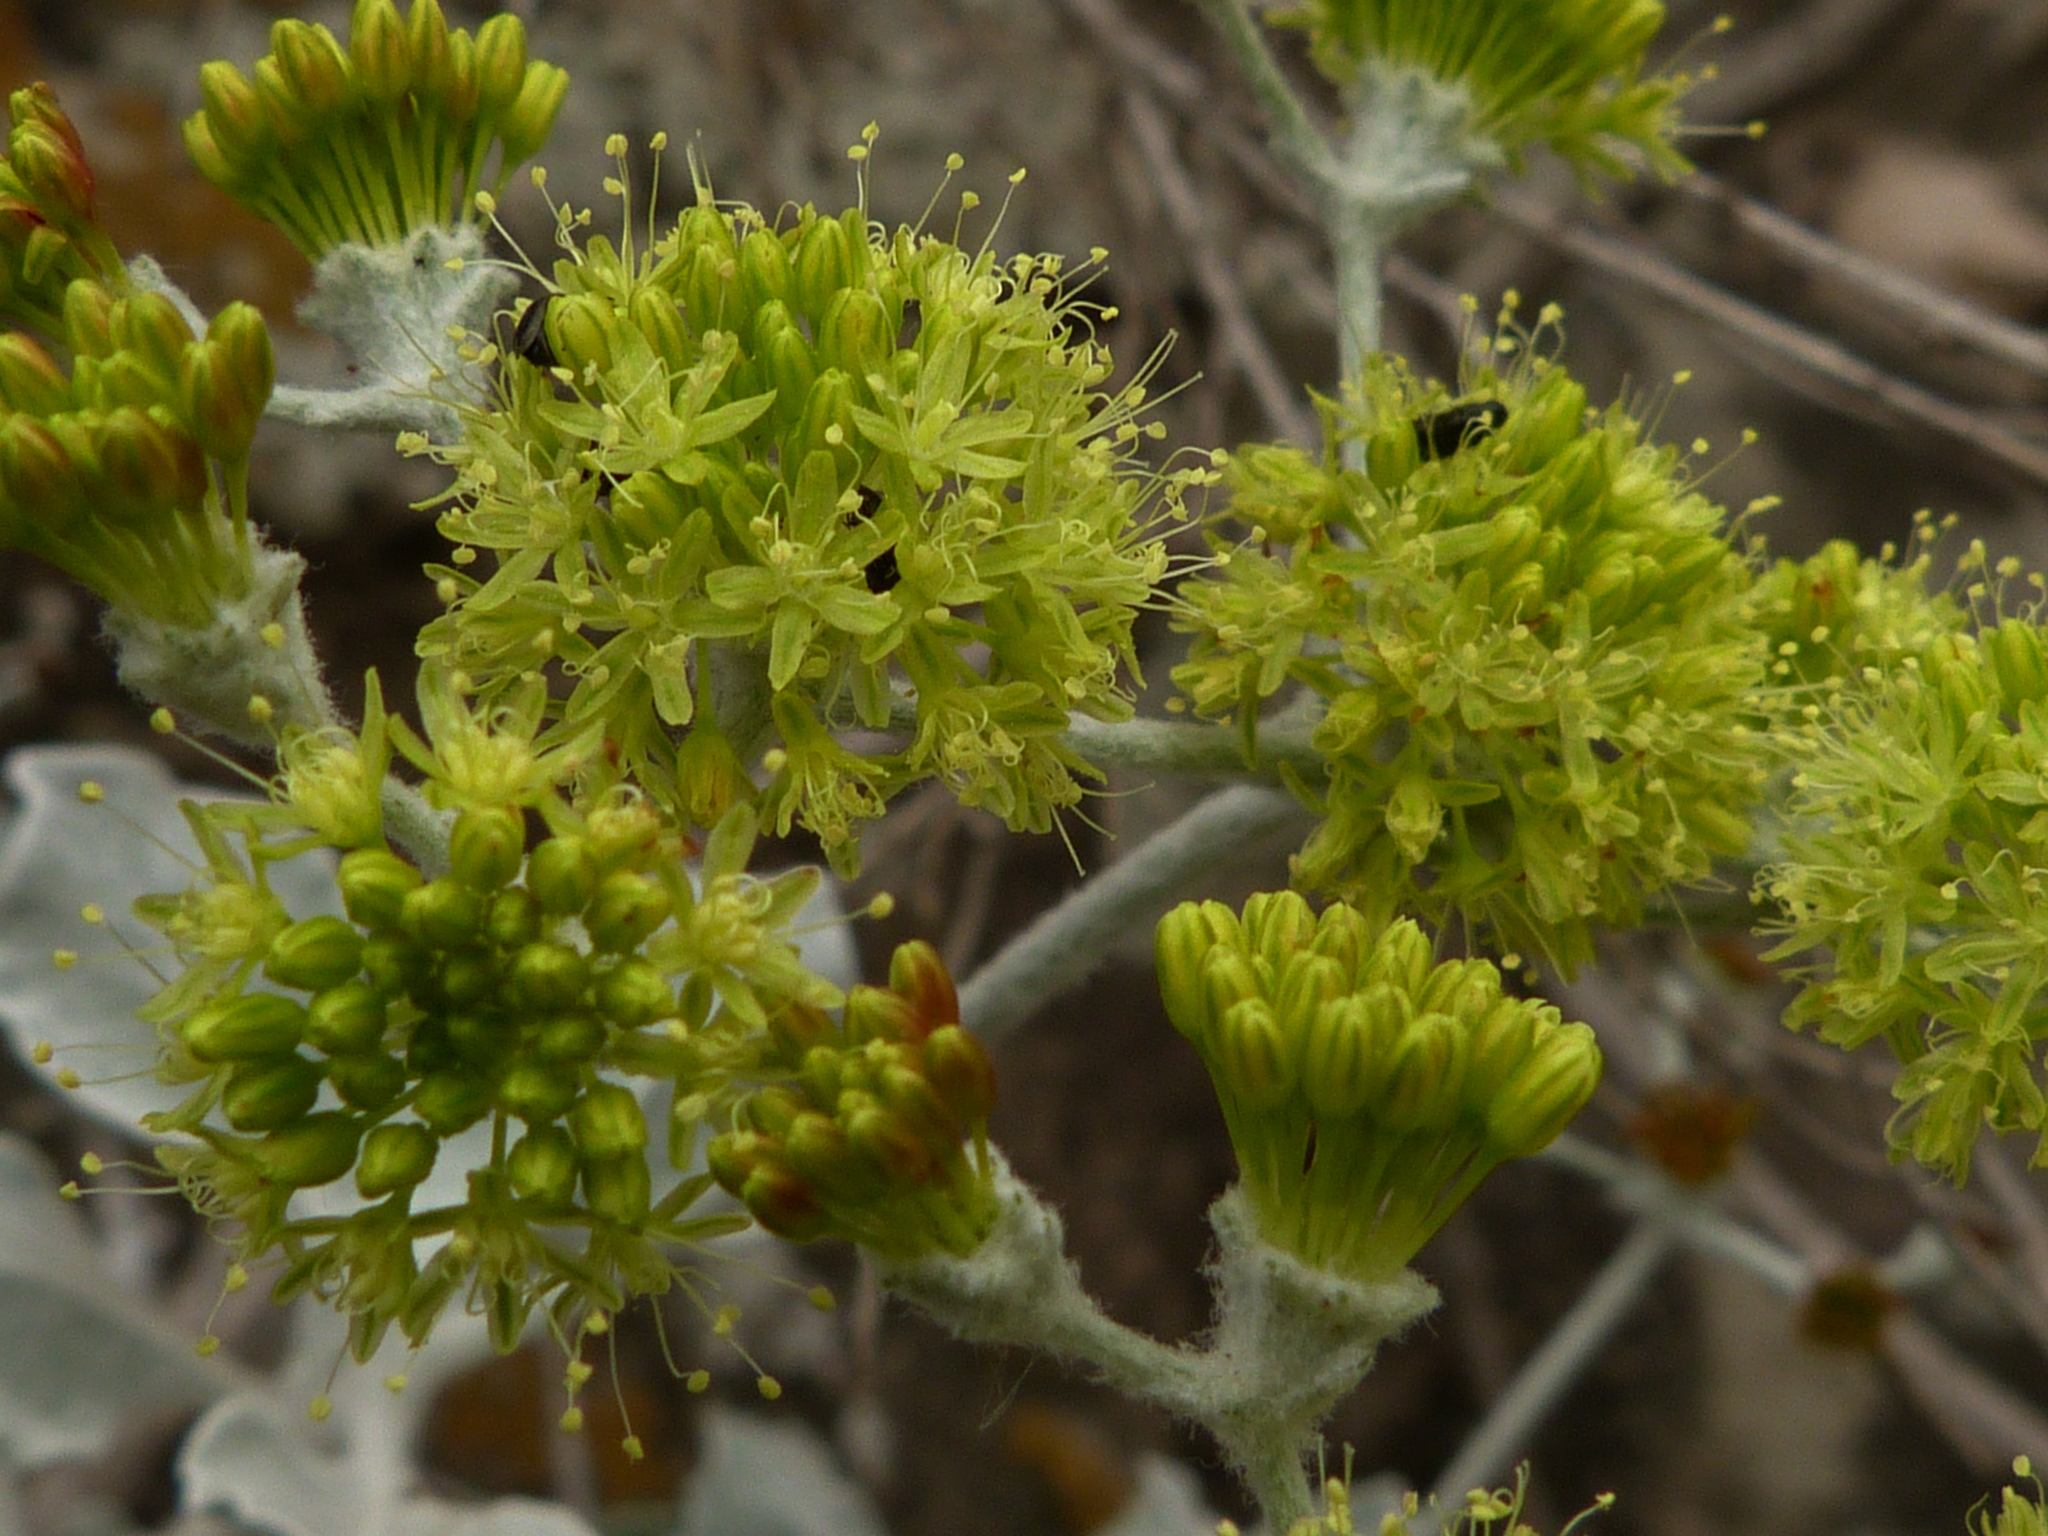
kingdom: Plantae
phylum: Tracheophyta
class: Magnoliopsida
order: Caryophyllales
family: Polygonaceae
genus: Eriogonum
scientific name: Eriogonum crocatum
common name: Saffron wild buckwheat
